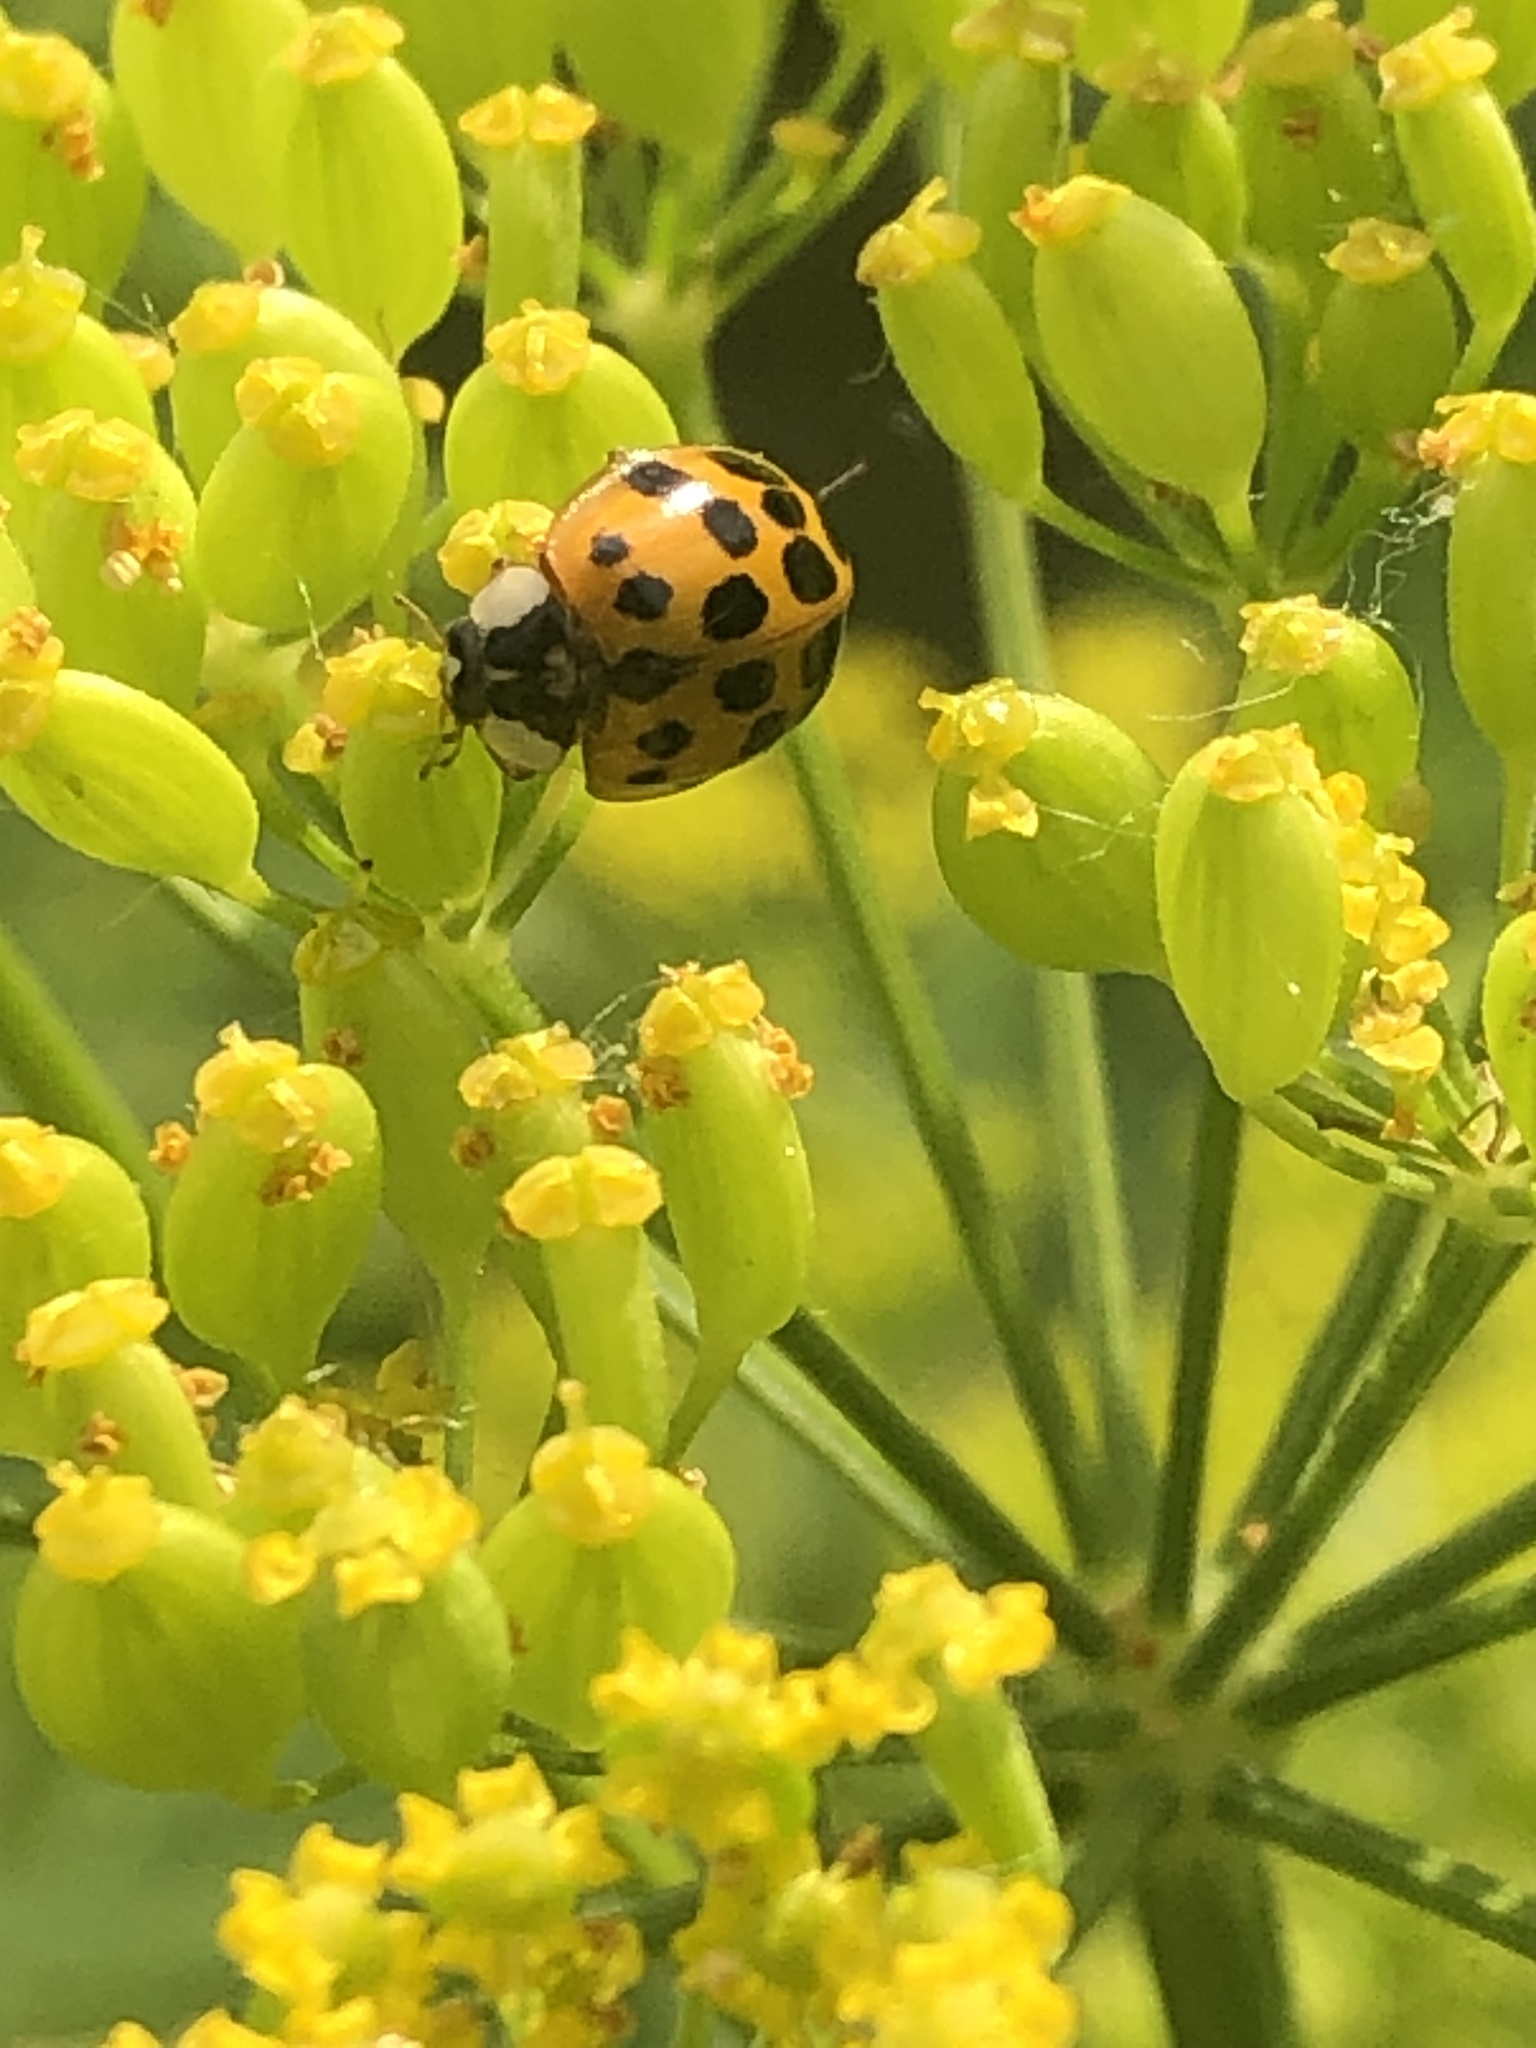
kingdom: Animalia
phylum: Arthropoda
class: Insecta
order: Coleoptera
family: Coccinellidae
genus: Harmonia
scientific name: Harmonia axyridis
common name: Harlequin ladybird
